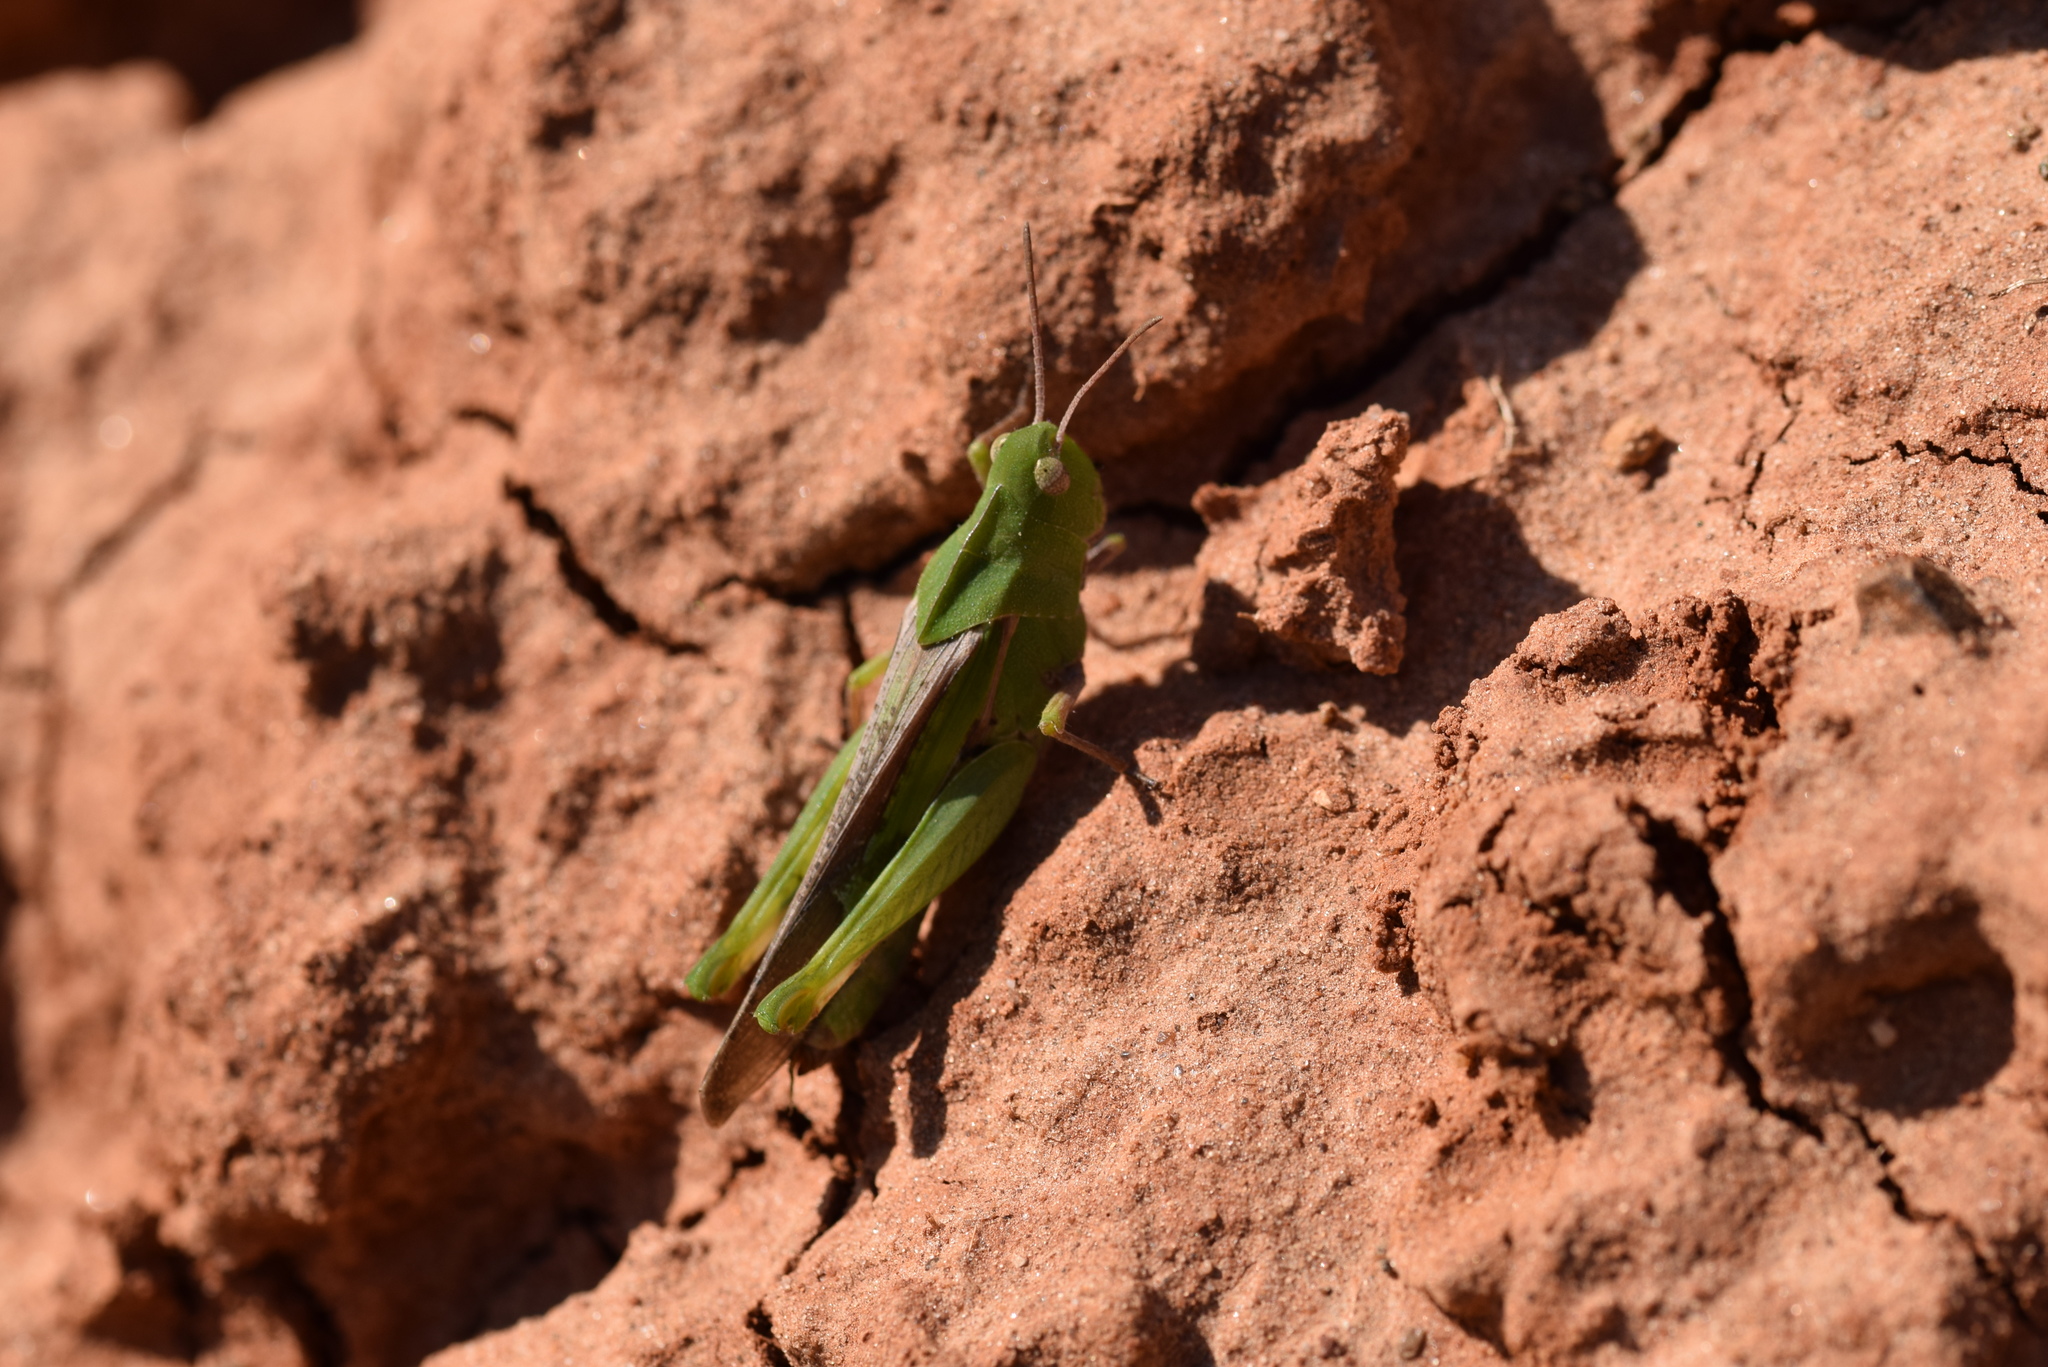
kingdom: Animalia
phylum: Arthropoda
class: Insecta
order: Orthoptera
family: Acrididae
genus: Chortophaga
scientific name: Chortophaga viridifasciata
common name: Green-striped grasshopper
